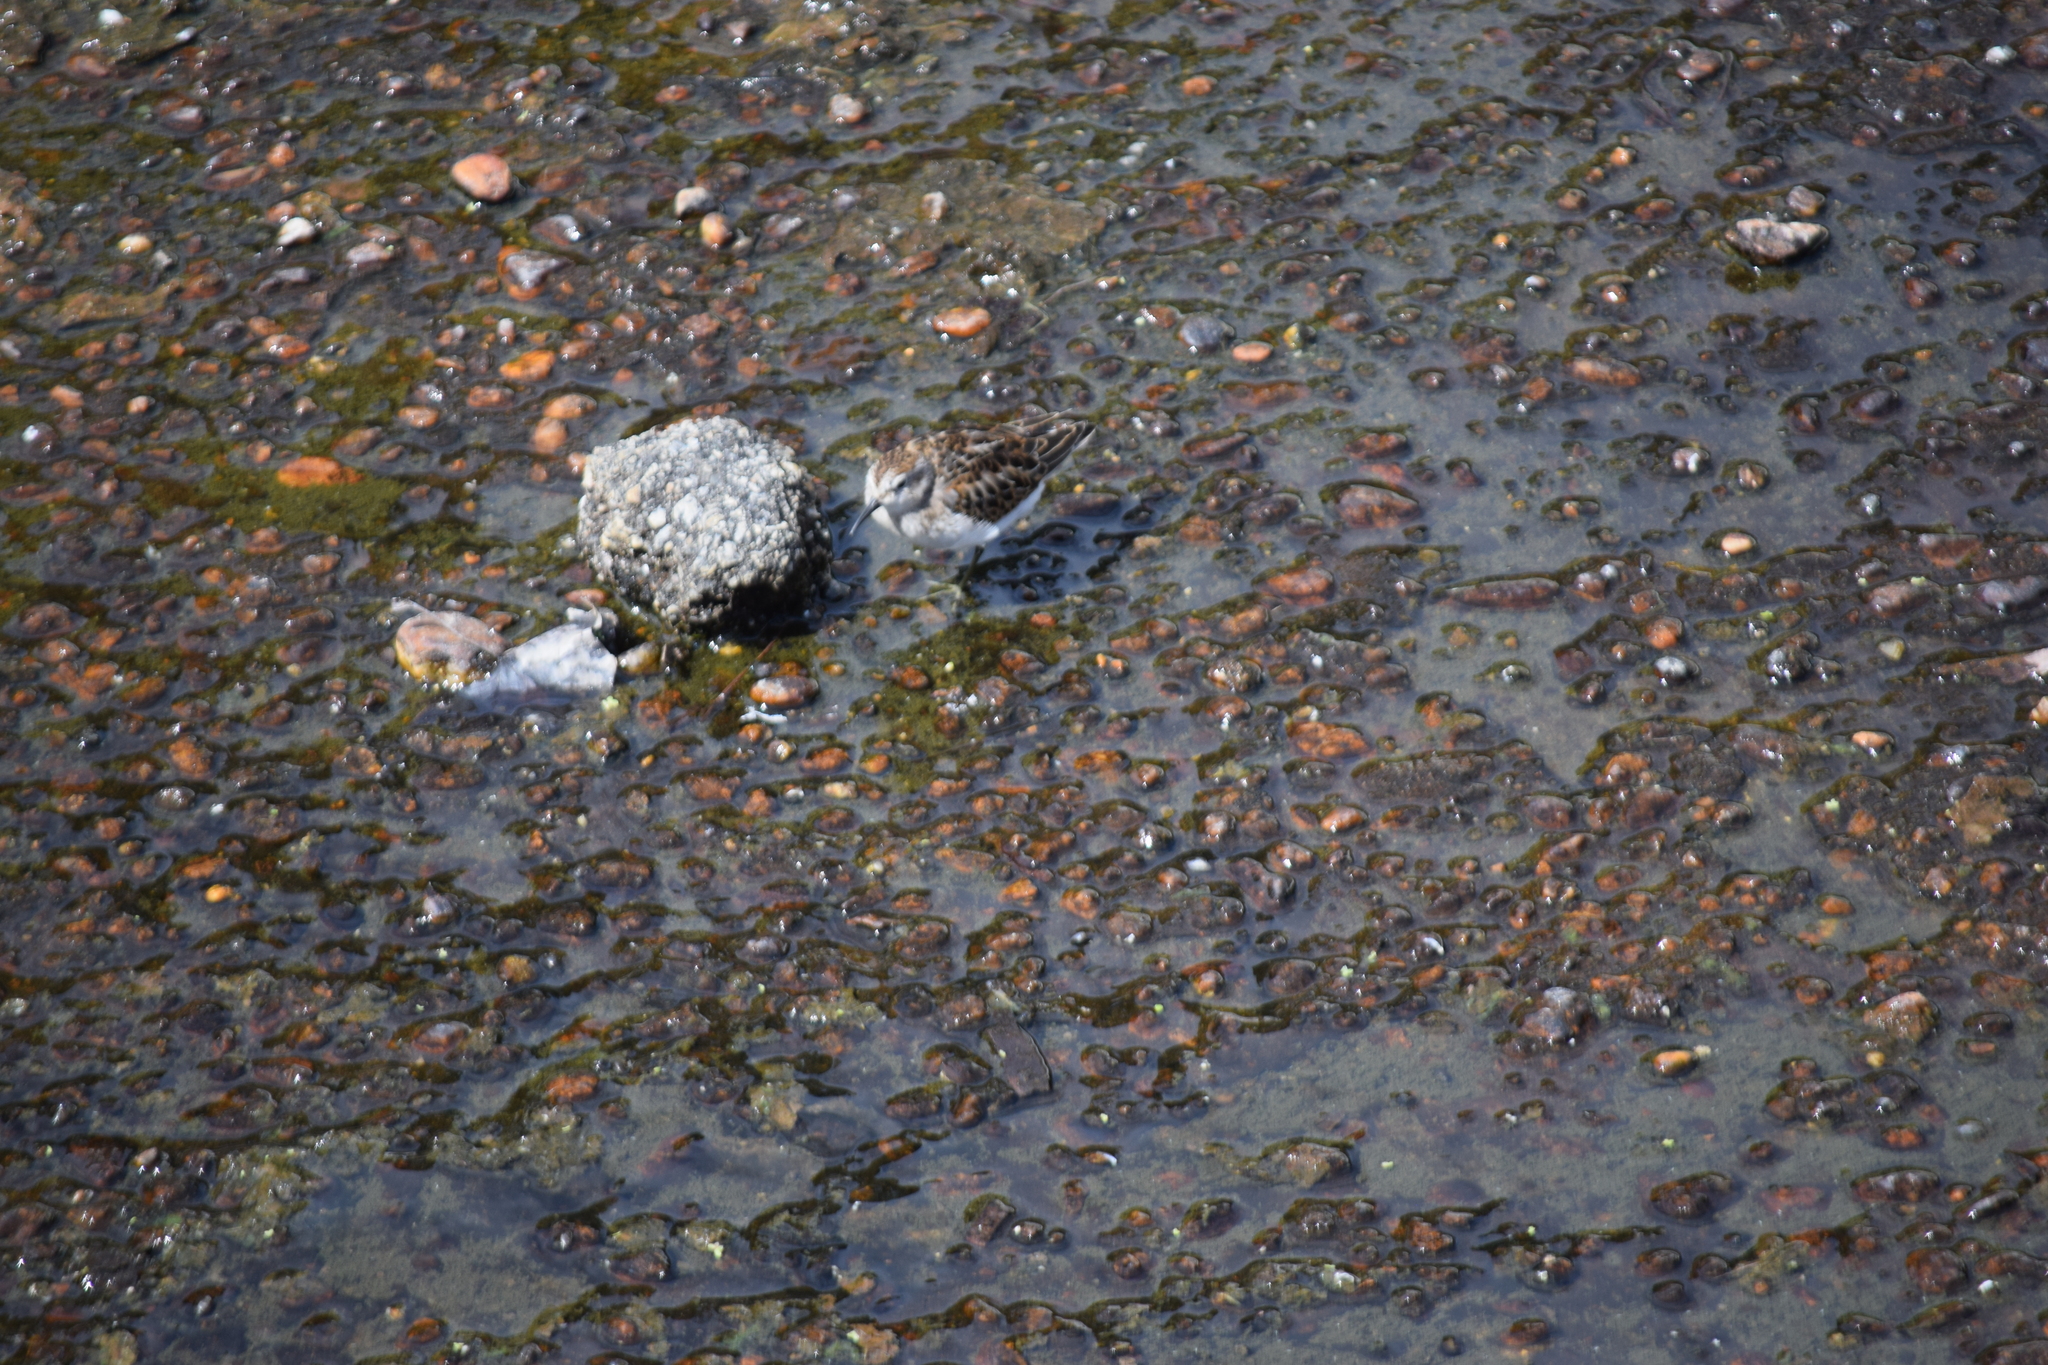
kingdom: Animalia
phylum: Chordata
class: Aves
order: Charadriiformes
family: Scolopacidae
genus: Calidris
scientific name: Calidris minutilla
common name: Least sandpiper
